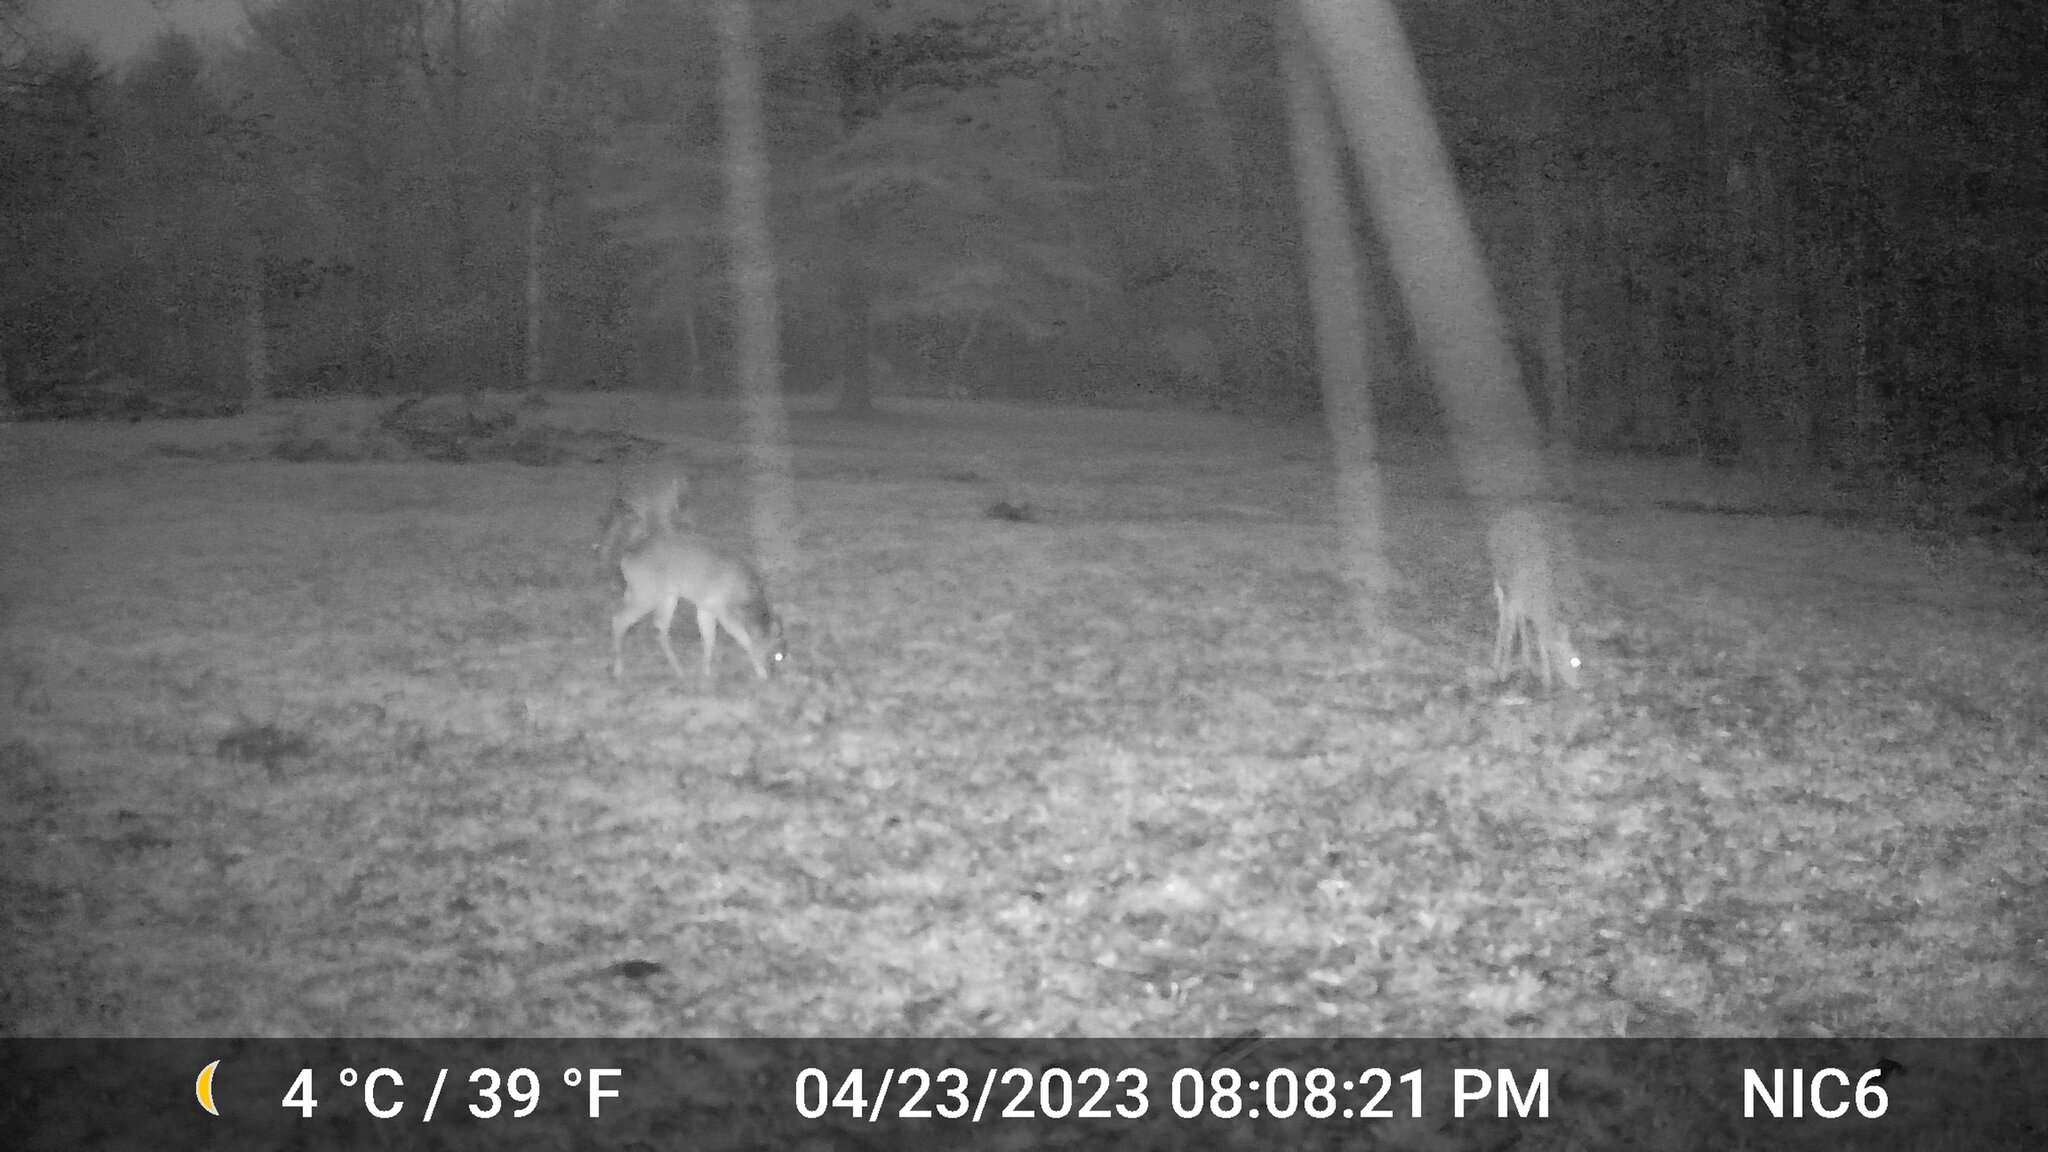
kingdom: Animalia
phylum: Chordata
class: Mammalia
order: Artiodactyla
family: Cervidae
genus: Odocoileus
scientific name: Odocoileus virginianus
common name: White-tailed deer
